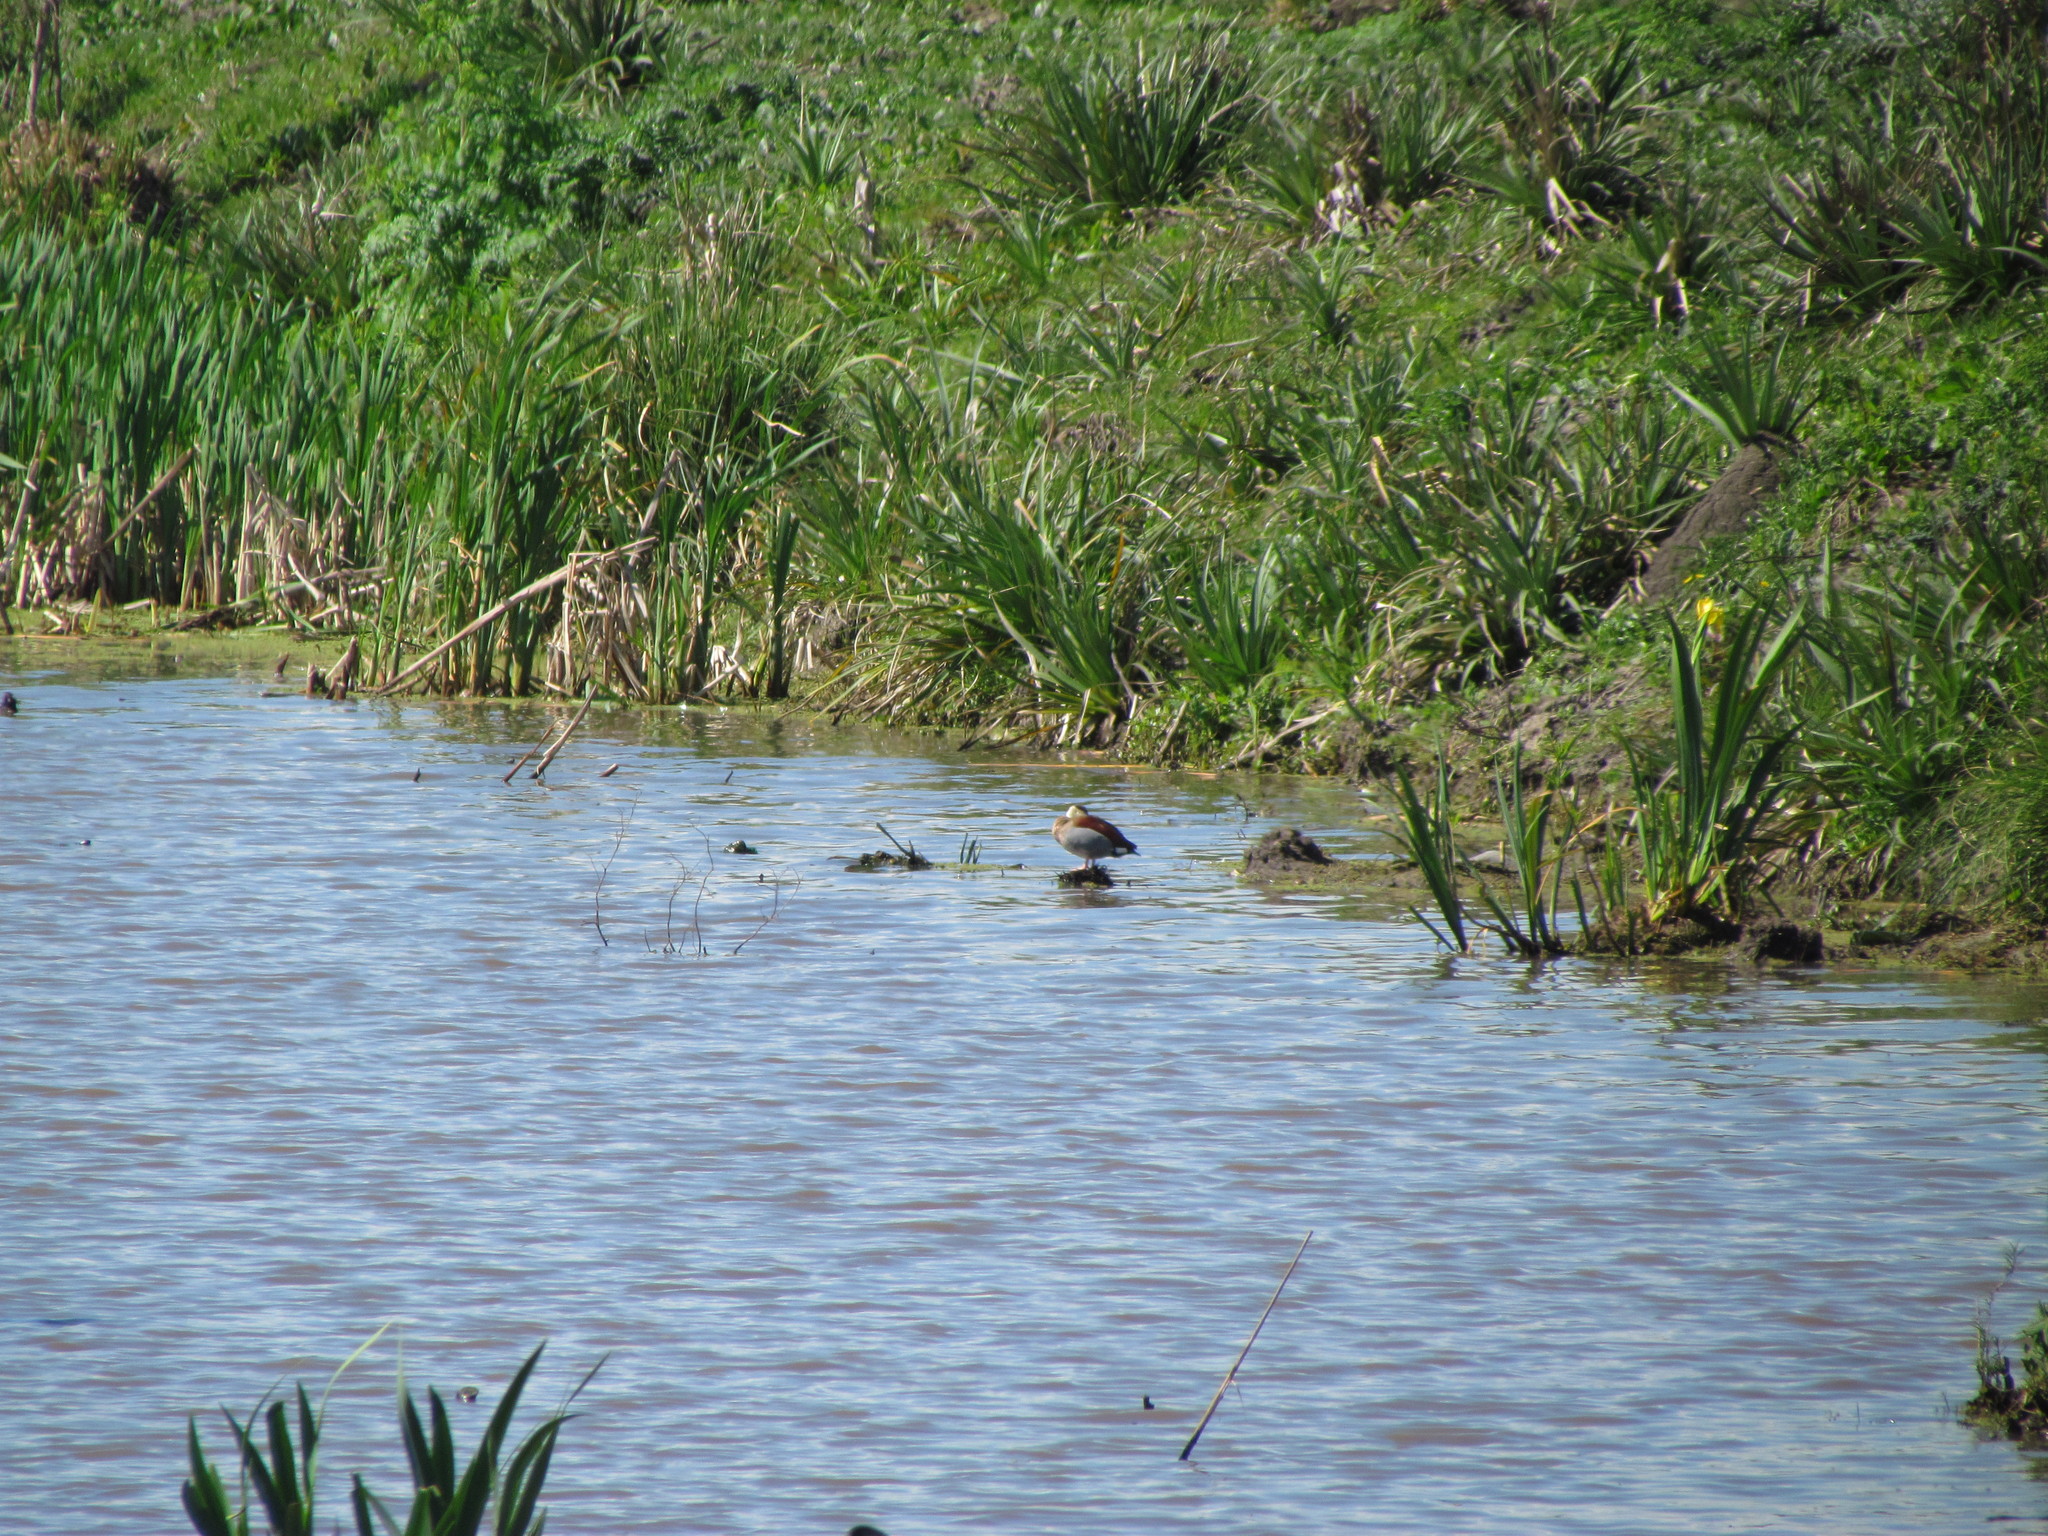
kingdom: Animalia
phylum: Chordata
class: Aves
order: Anseriformes
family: Anatidae
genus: Callonetta
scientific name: Callonetta leucophrys
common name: Ringed teal
